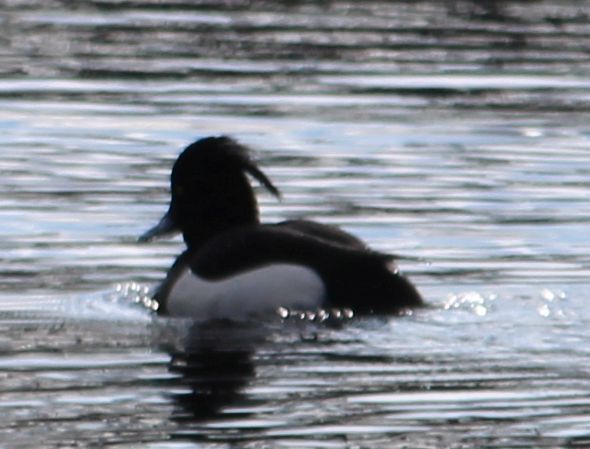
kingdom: Animalia
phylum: Chordata
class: Aves
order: Anseriformes
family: Anatidae
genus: Aythya
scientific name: Aythya fuligula
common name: Tufted duck
